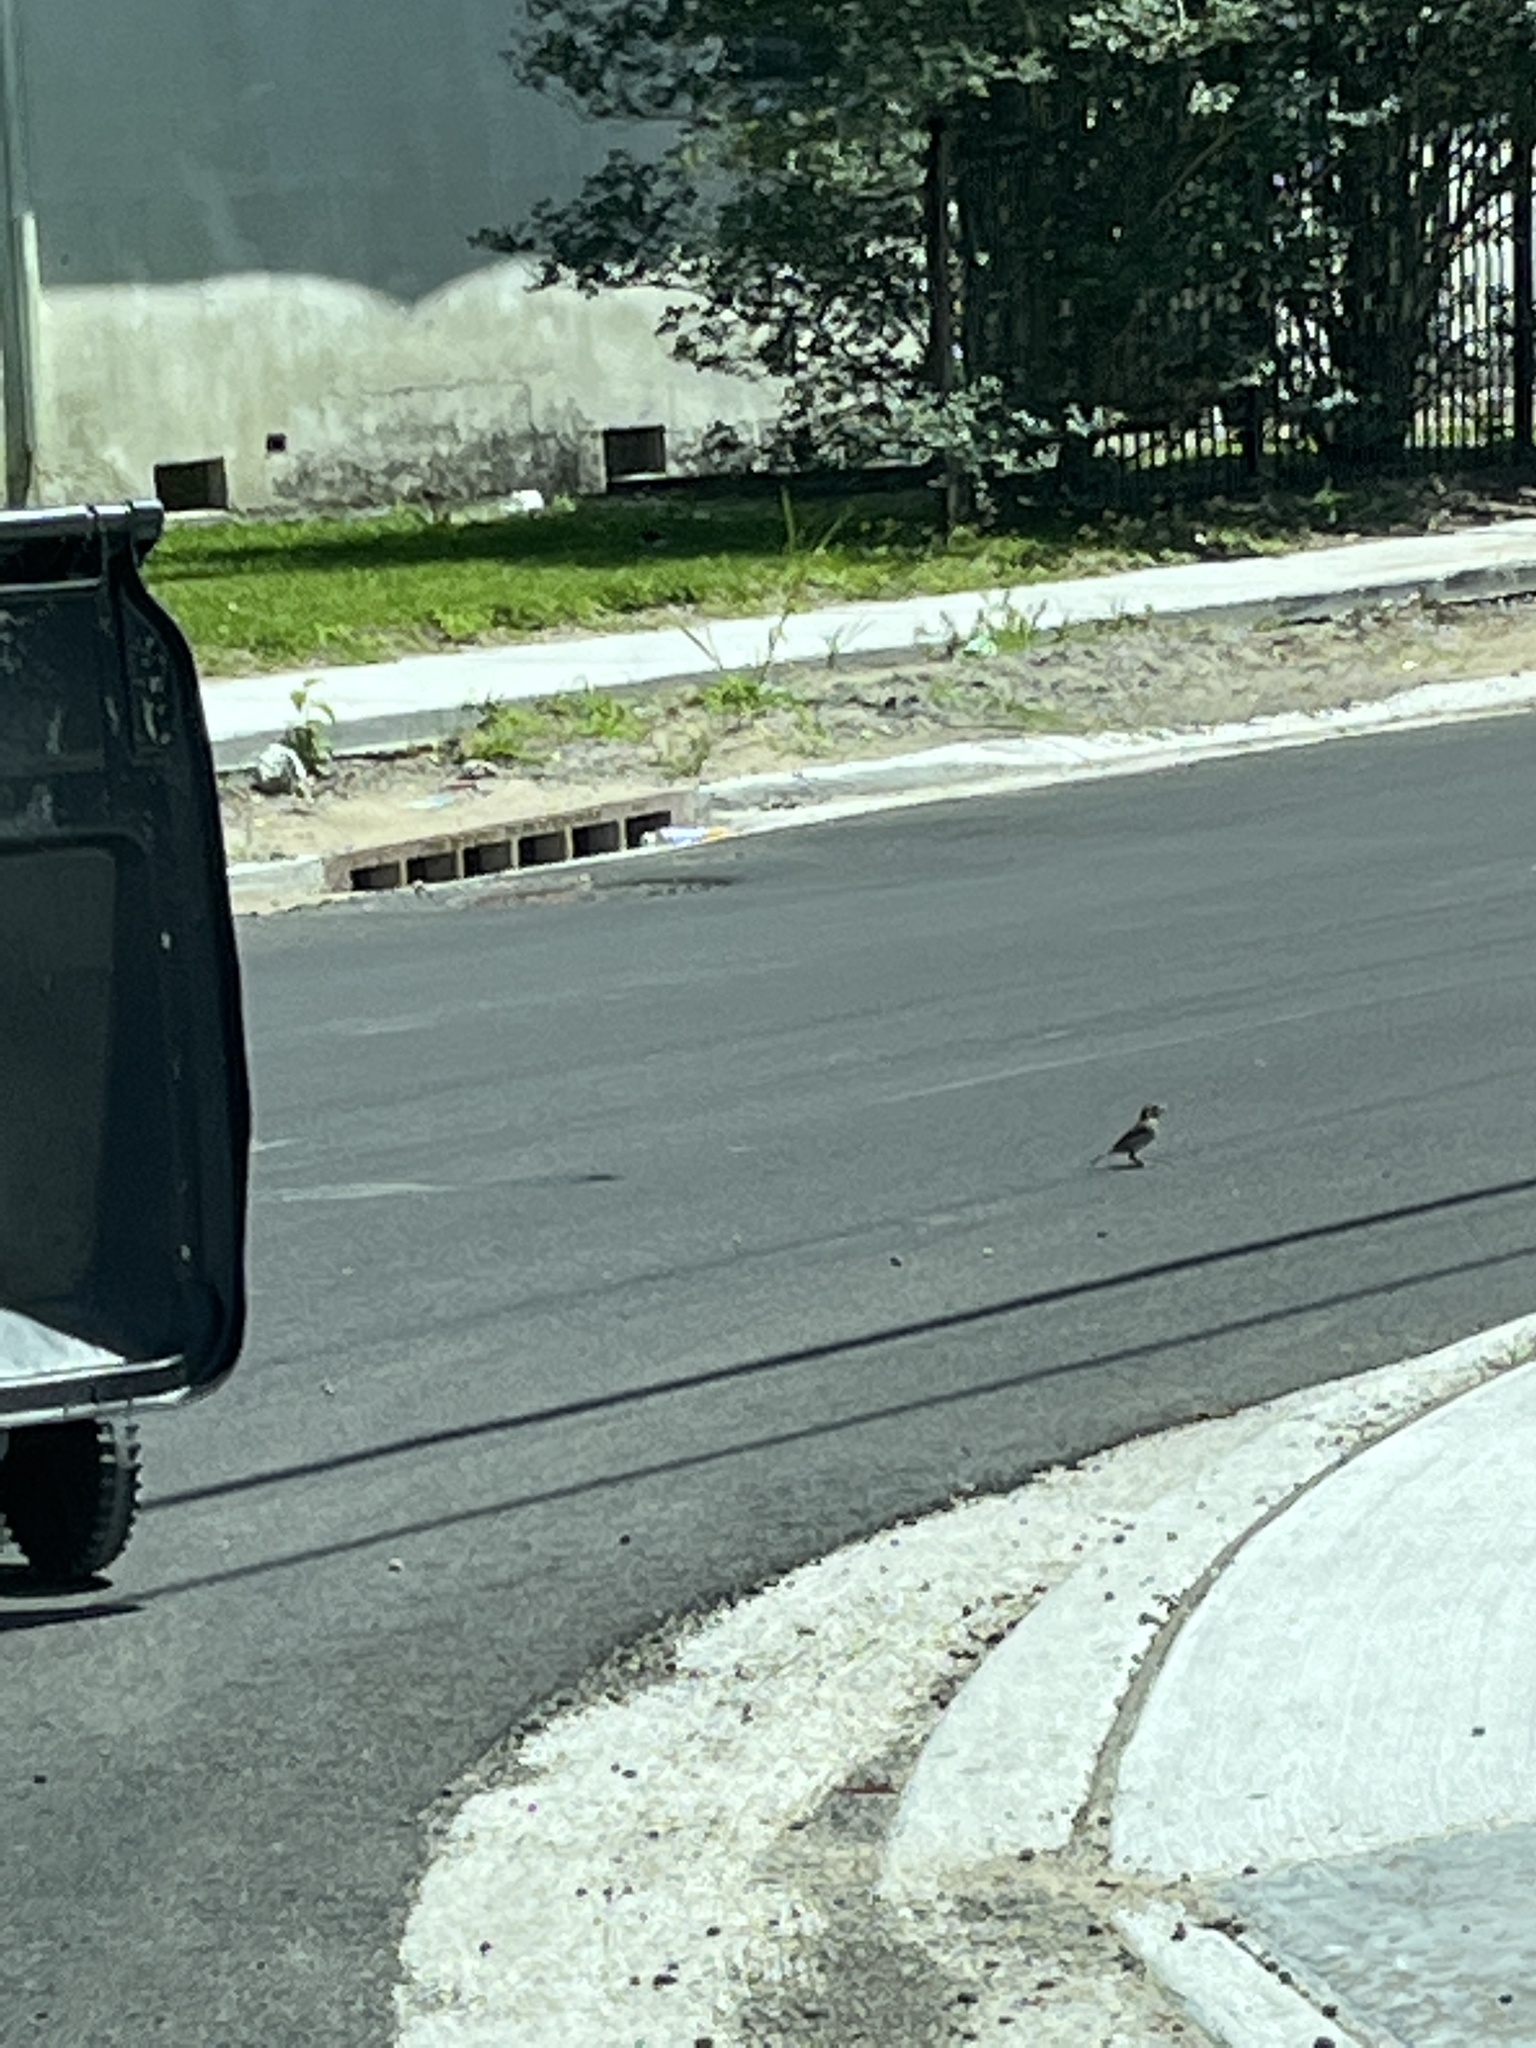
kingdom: Animalia
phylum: Chordata
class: Aves
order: Passeriformes
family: Passeridae
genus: Passer
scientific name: Passer domesticus
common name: House sparrow
